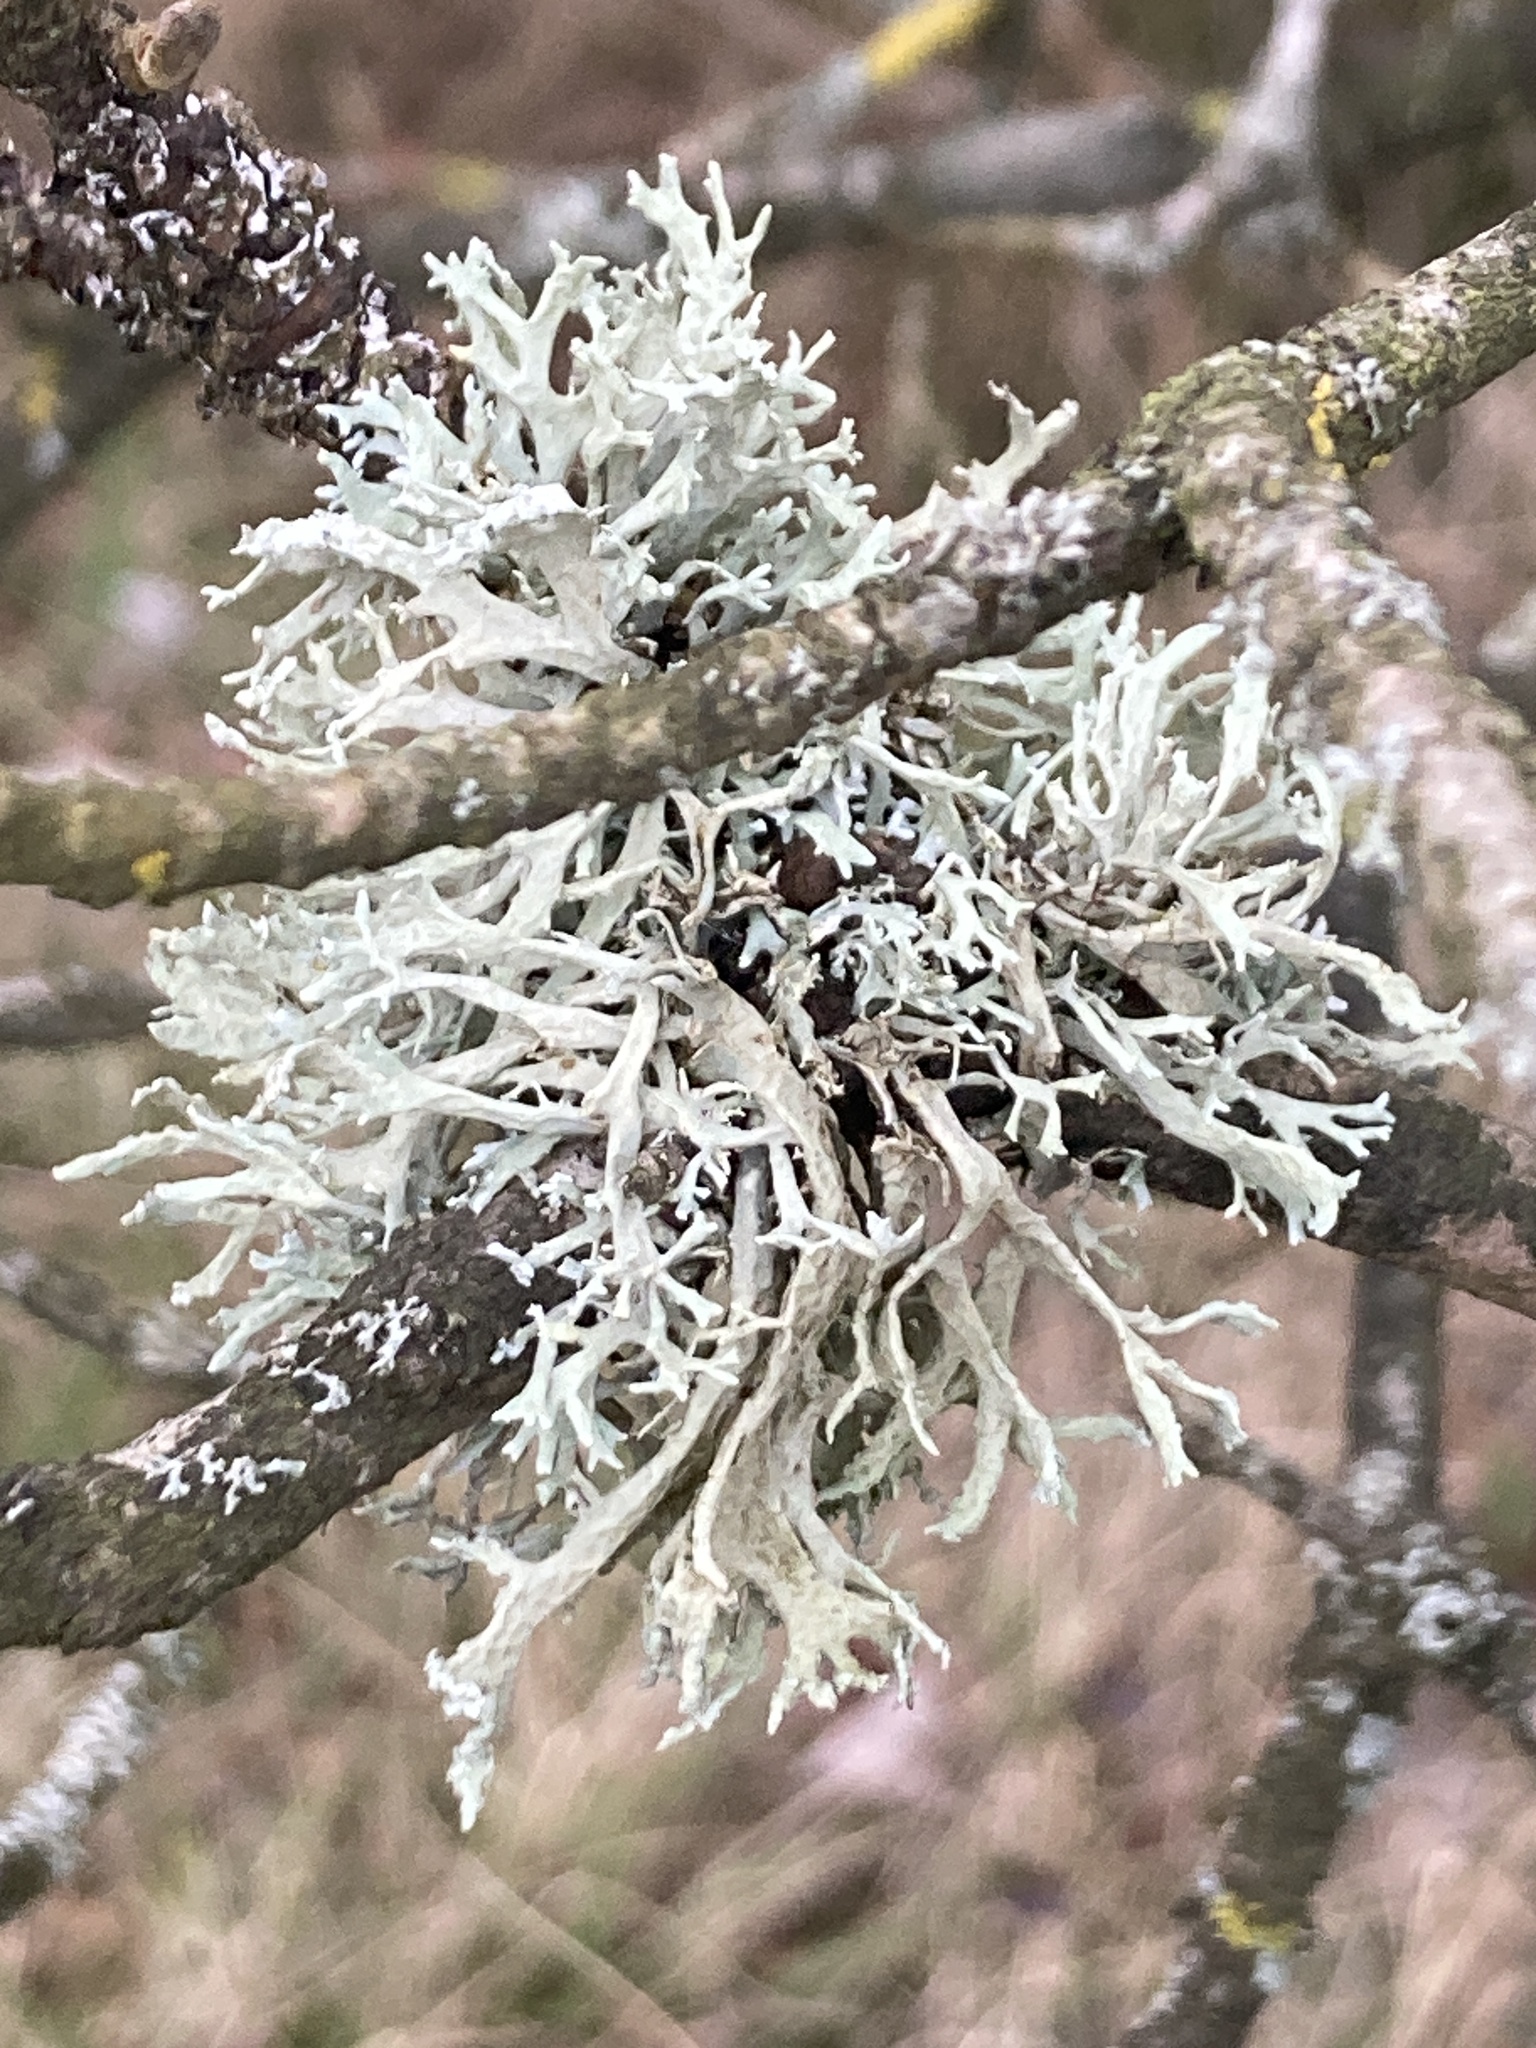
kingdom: Fungi
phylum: Ascomycota
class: Lecanoromycetes
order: Lecanorales
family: Parmeliaceae
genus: Evernia
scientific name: Evernia prunastri
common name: Oak moss
